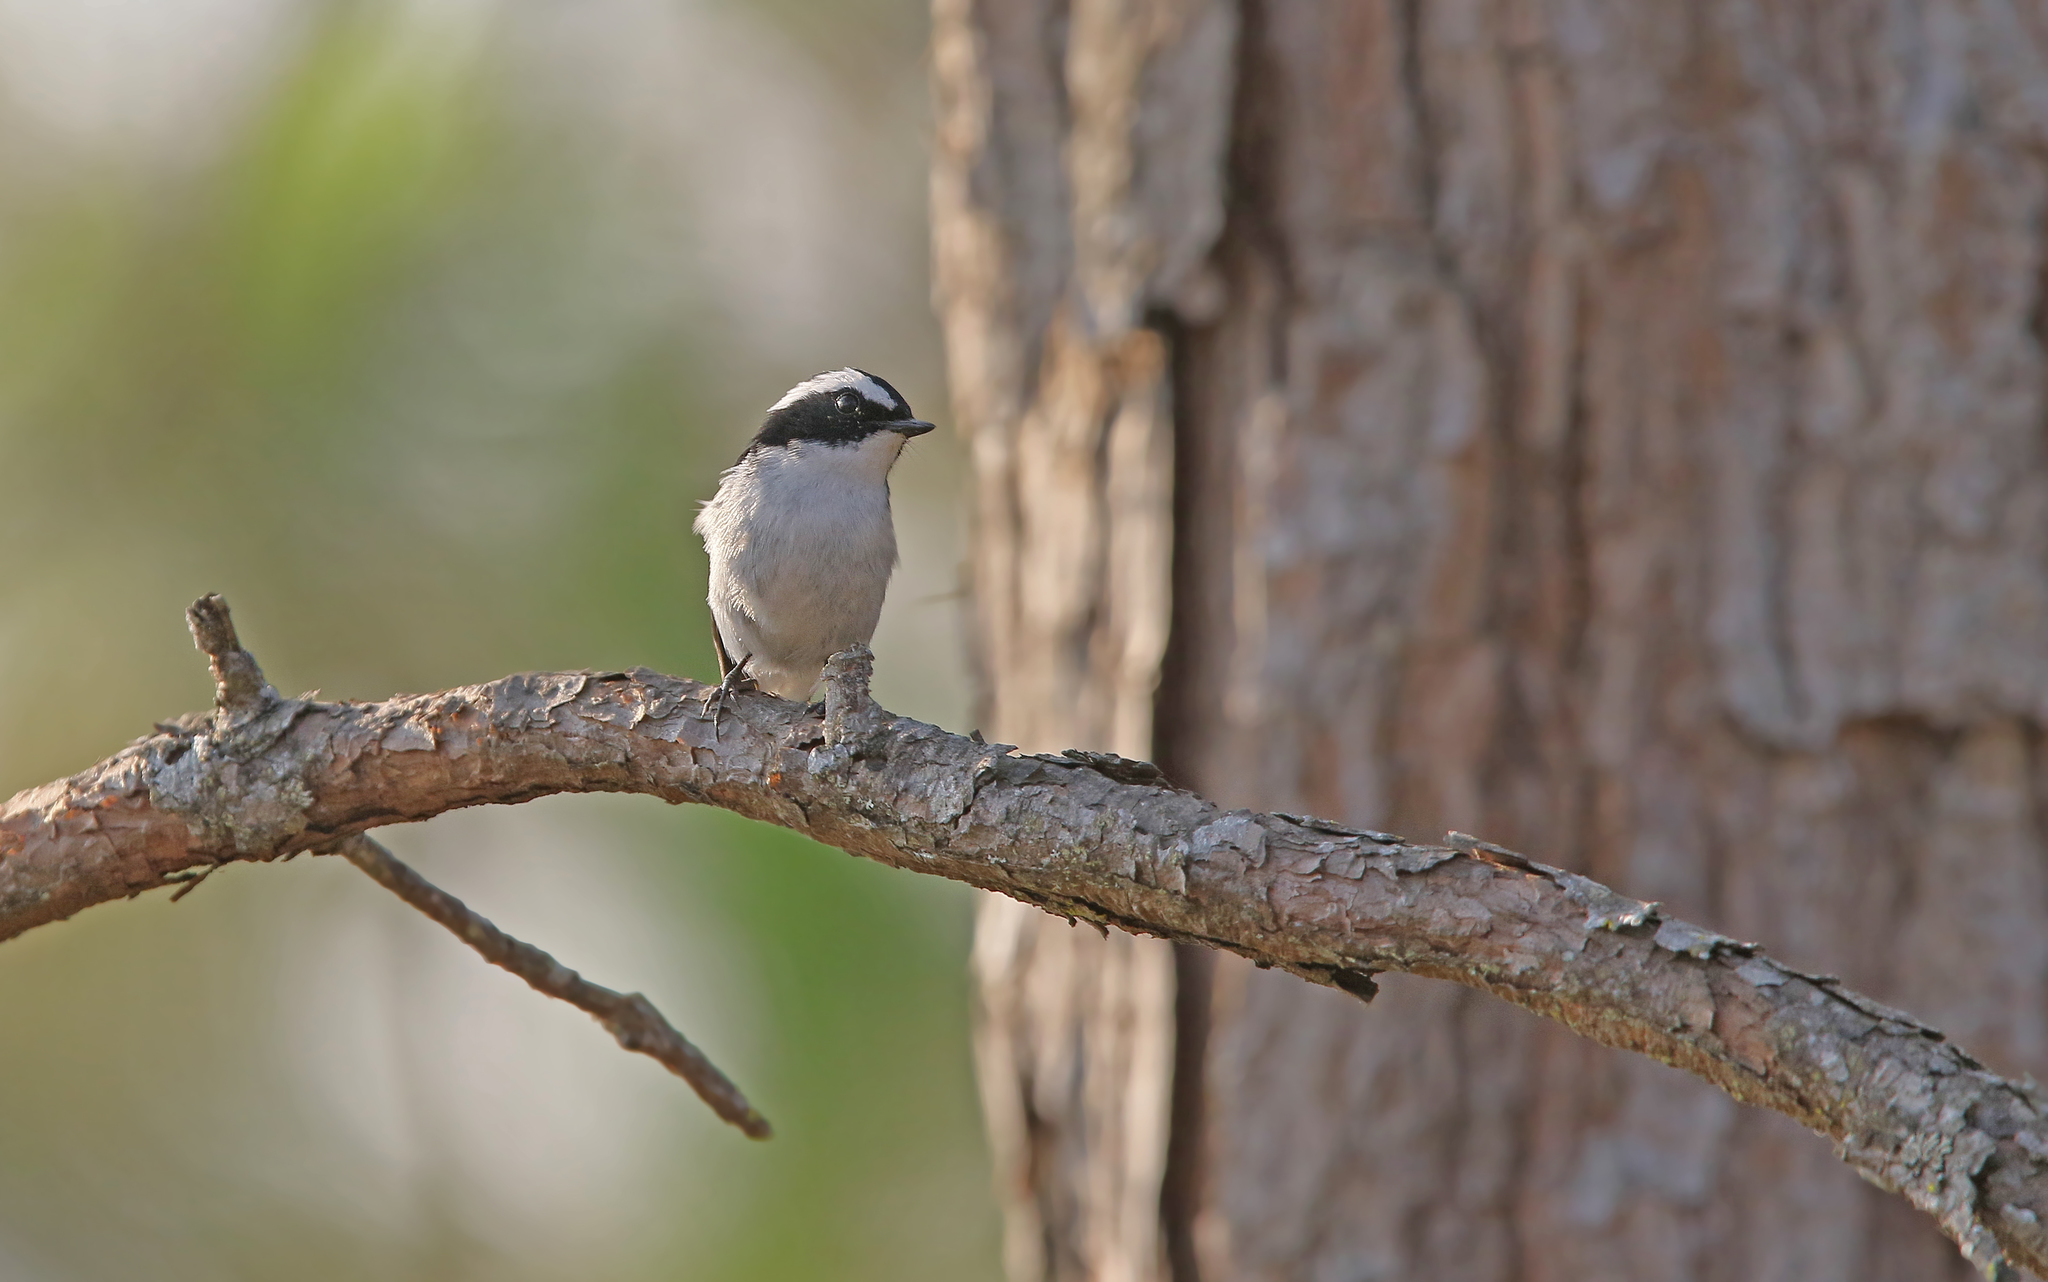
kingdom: Animalia
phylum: Chordata
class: Aves
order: Passeriformes
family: Muscicapidae
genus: Ficedula
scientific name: Ficedula westermanni
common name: Little pied flycatcher
